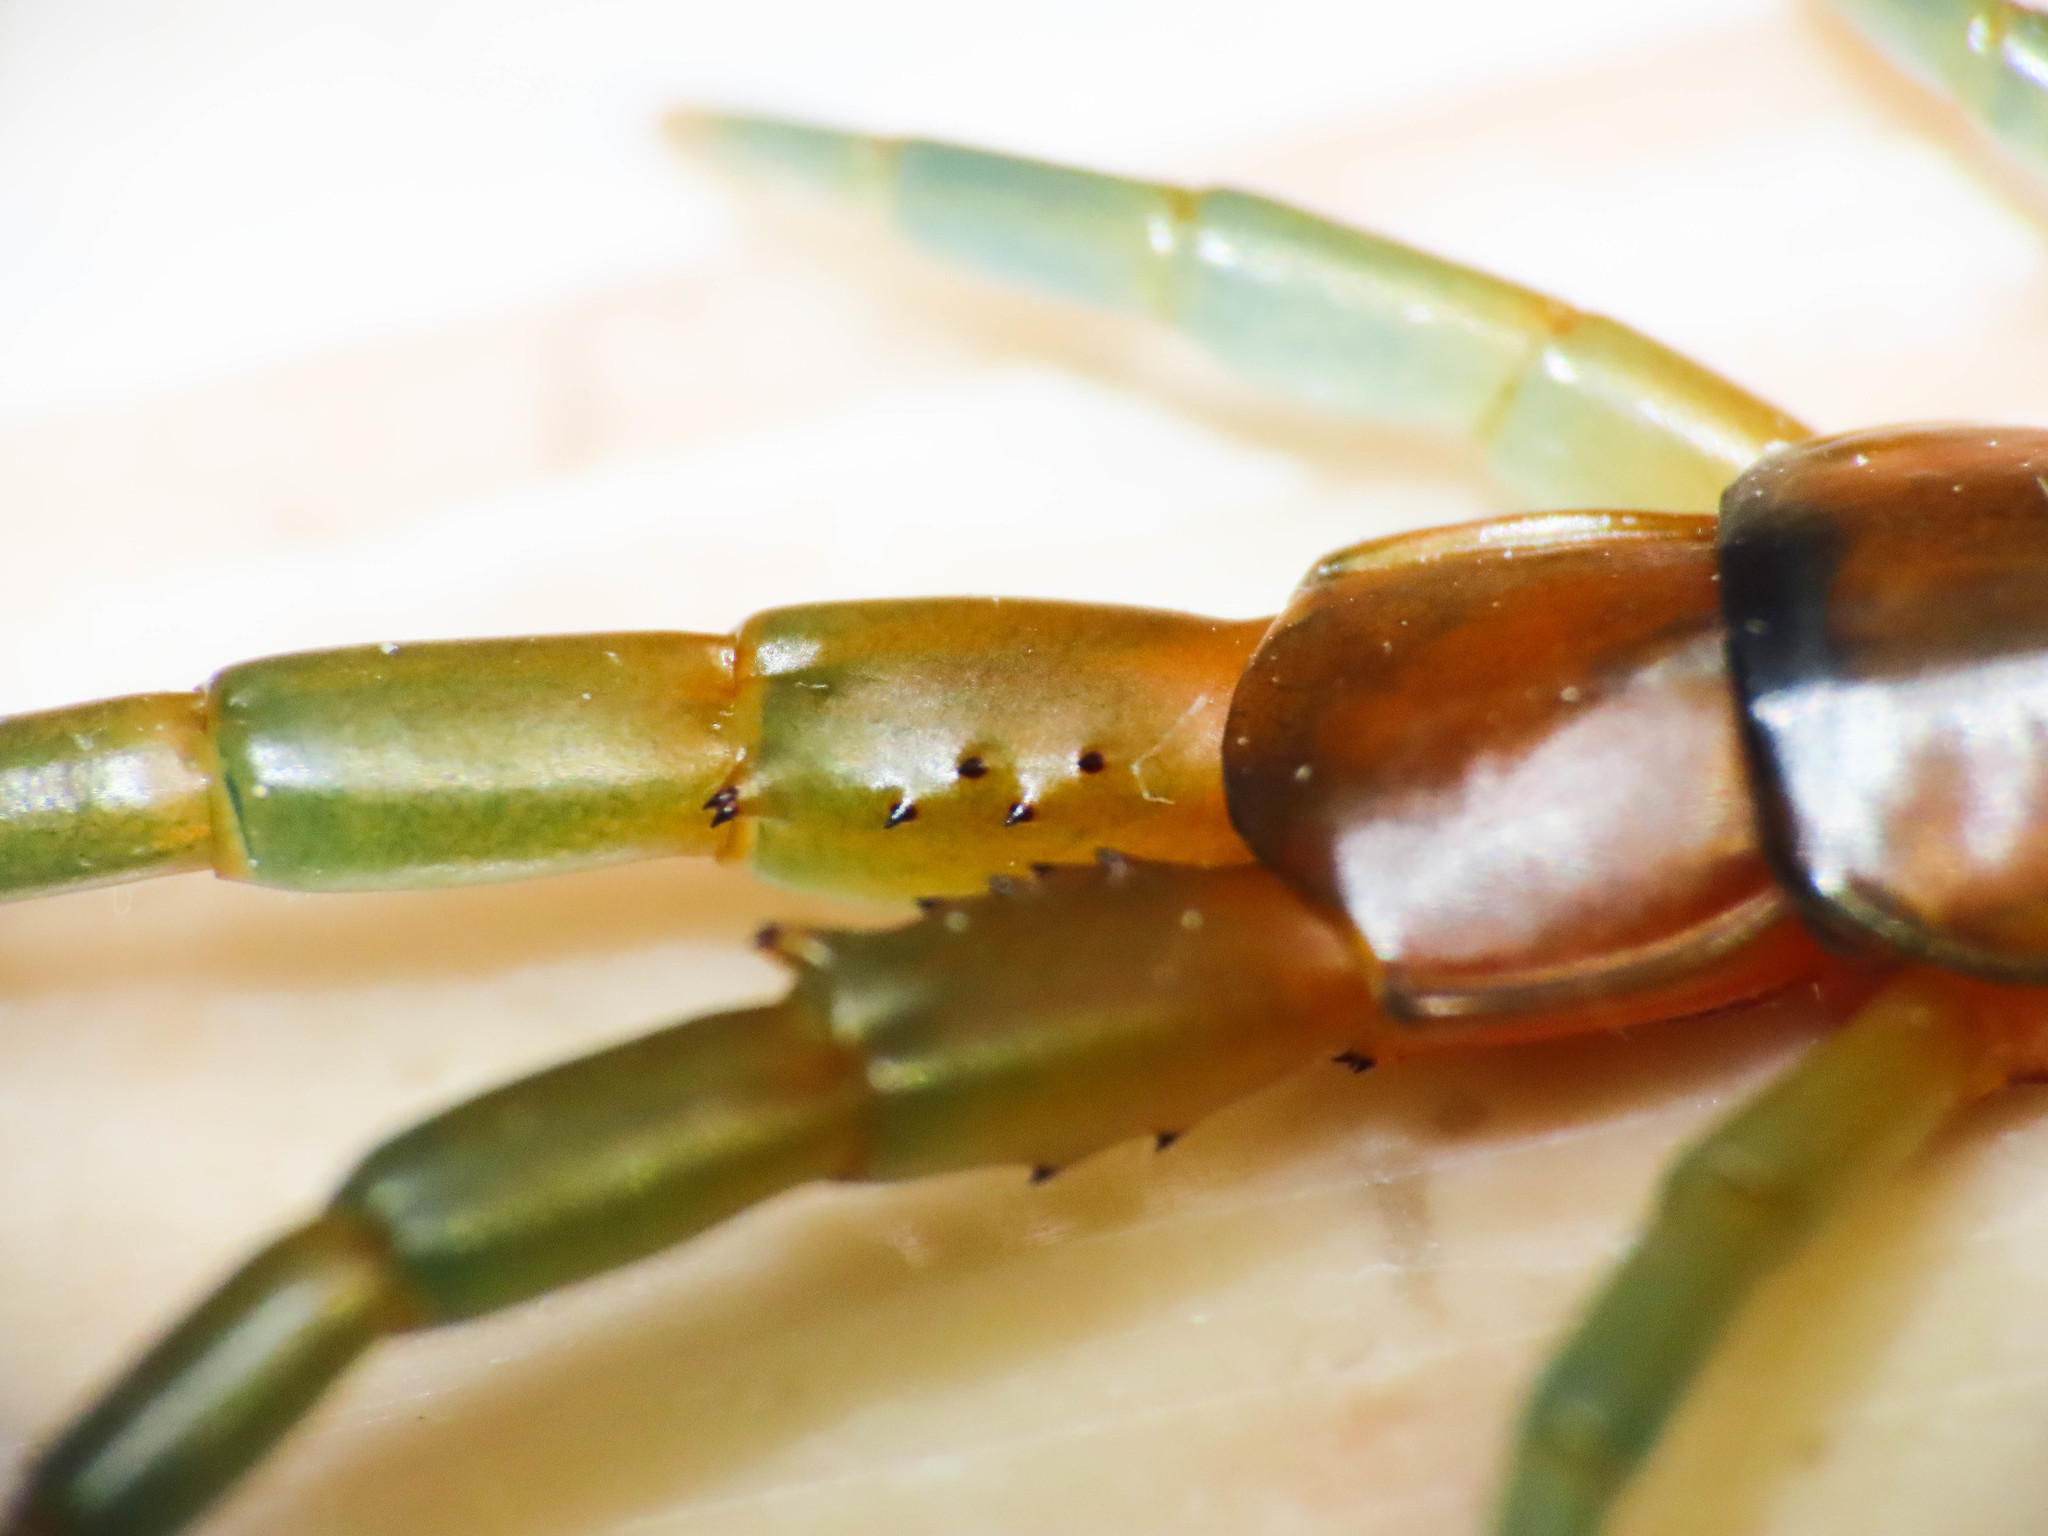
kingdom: Animalia
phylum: Arthropoda
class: Chilopoda
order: Scolopendromorpha
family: Scolopendridae
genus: Scolopendra
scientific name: Scolopendra cingulata
